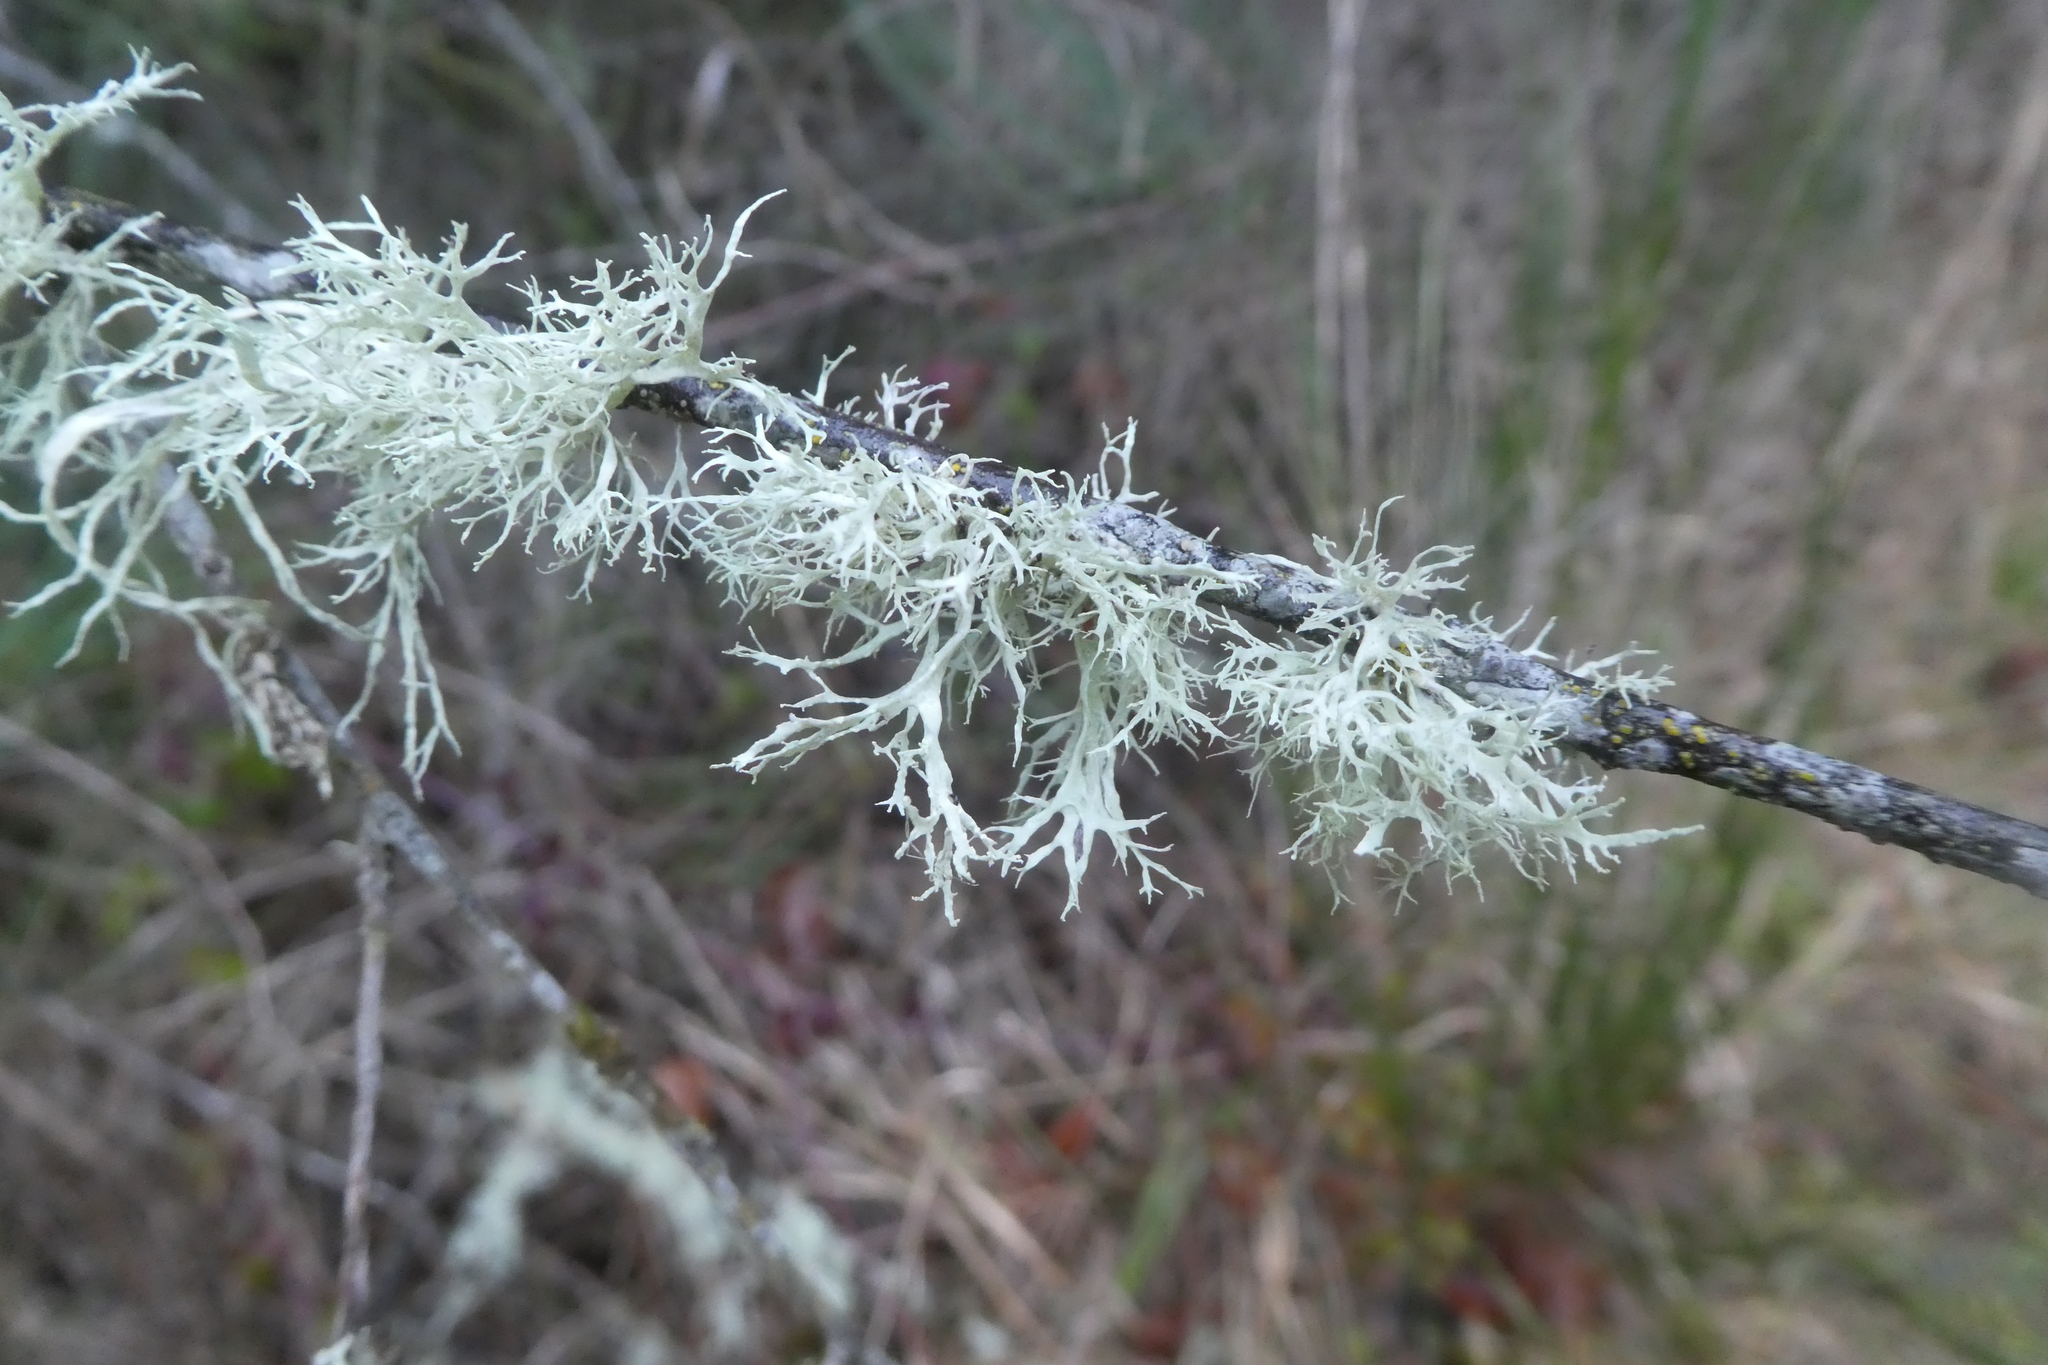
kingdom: Fungi
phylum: Ascomycota
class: Lecanoromycetes
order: Lecanorales
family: Ramalinaceae
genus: Ramalina
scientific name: Ramalina farinacea
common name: Farinose cartilage lichen
